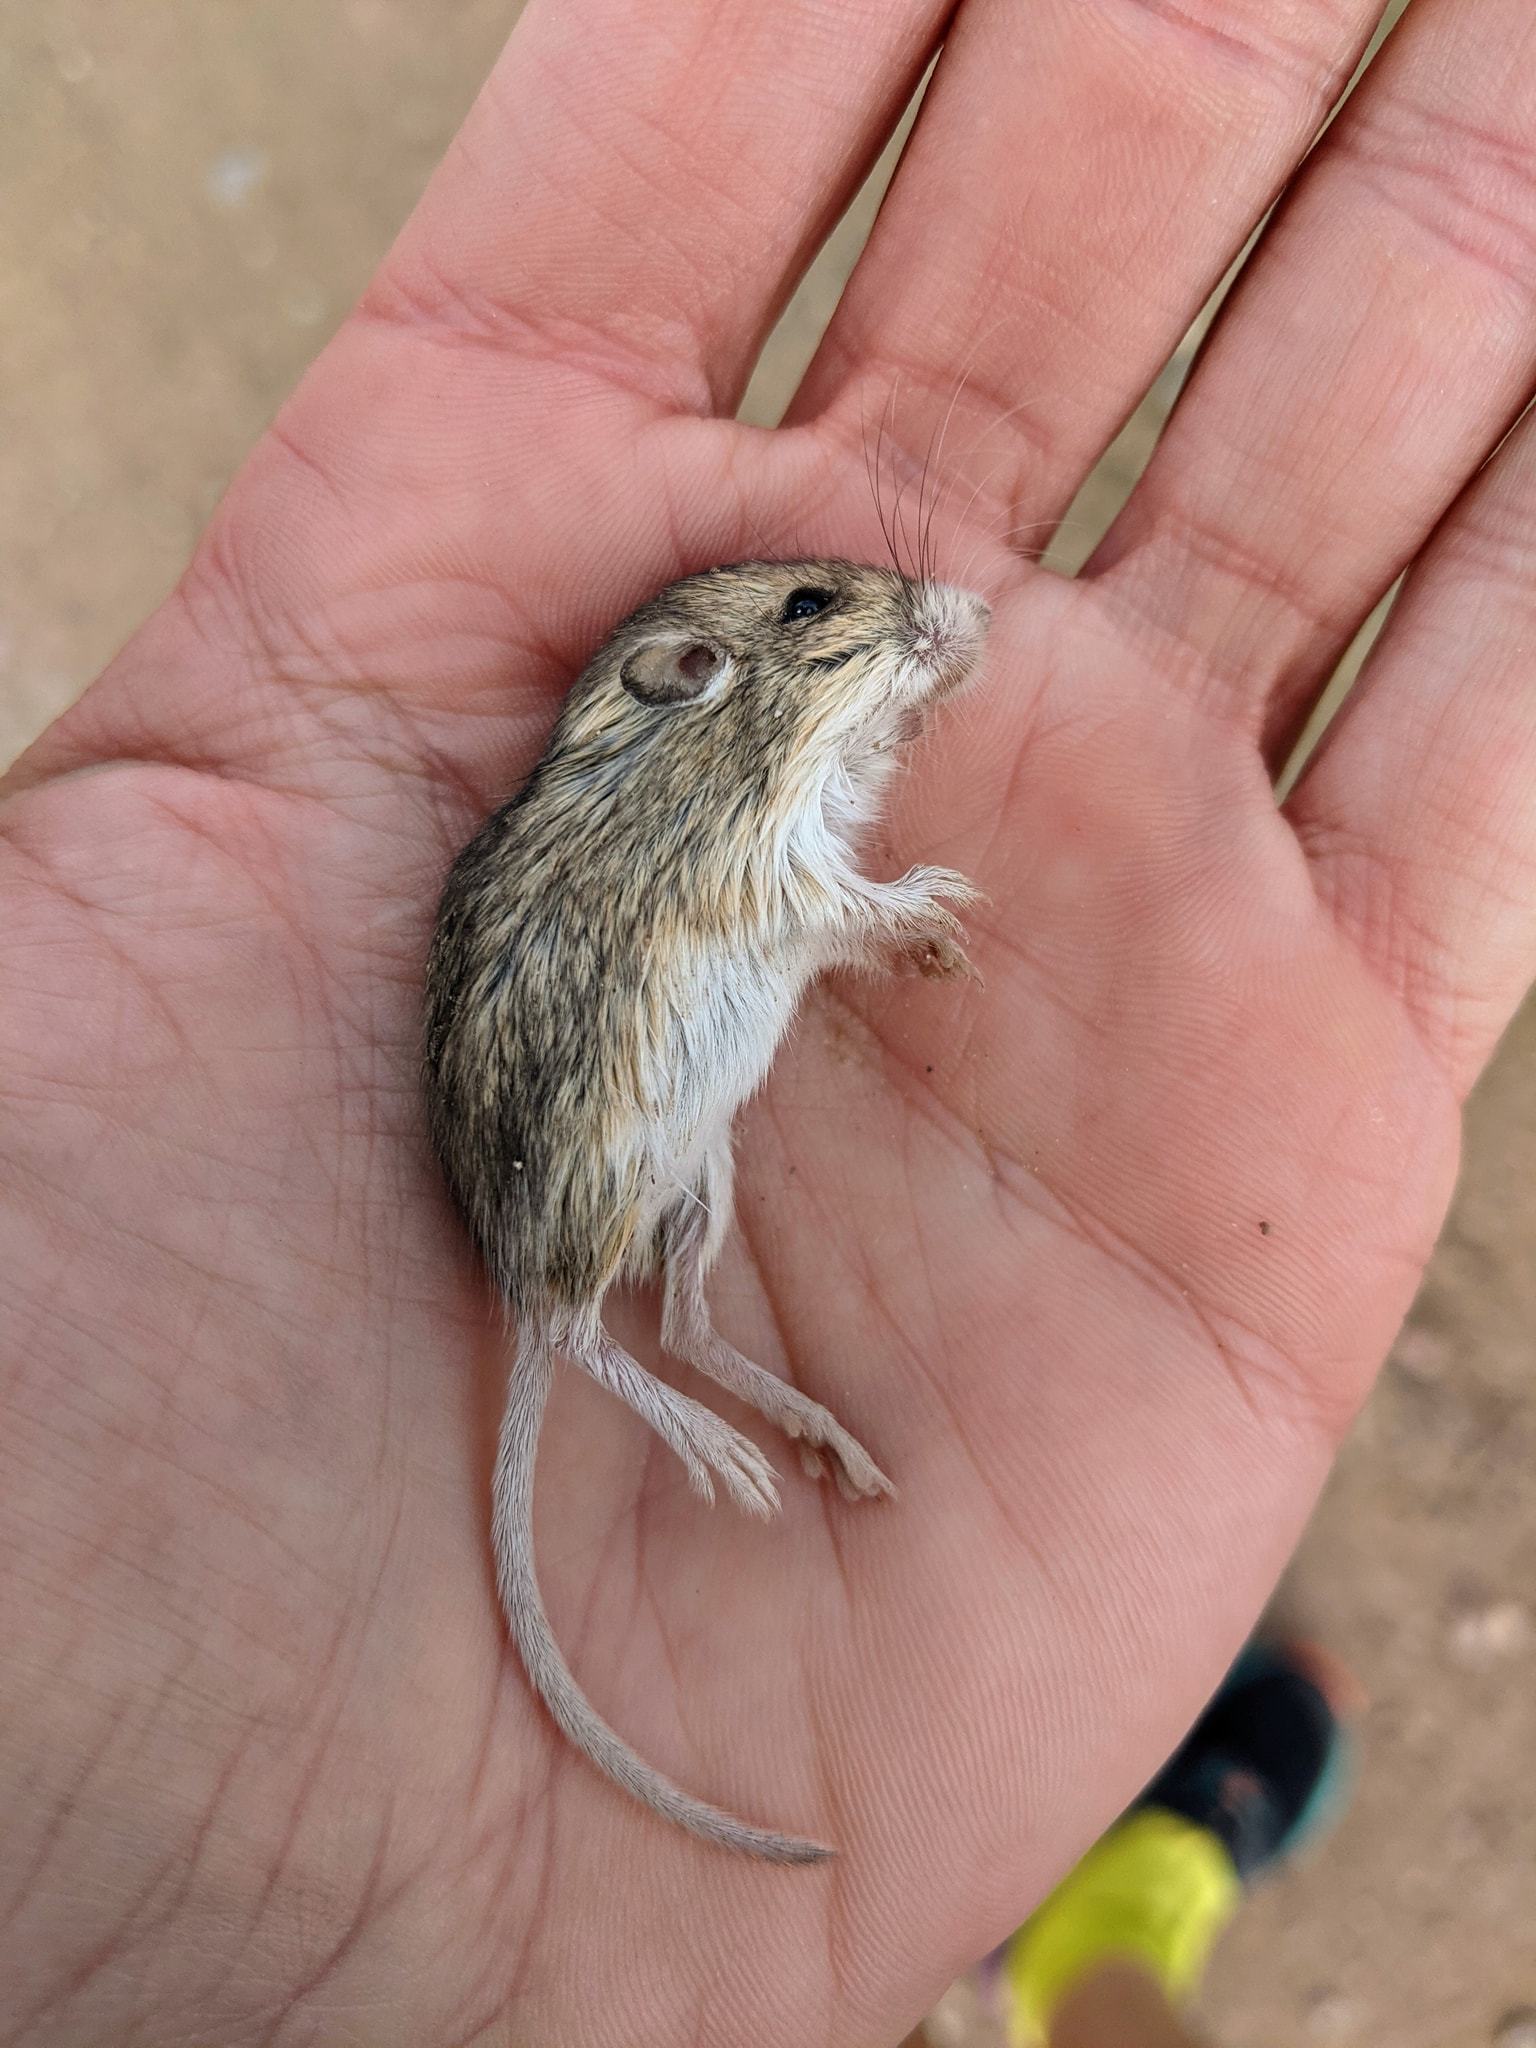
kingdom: Animalia
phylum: Chordata
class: Mammalia
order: Rodentia
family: Heteromyidae
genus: Perognathus
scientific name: Perognathus flavus
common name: Silky pocket mouse
